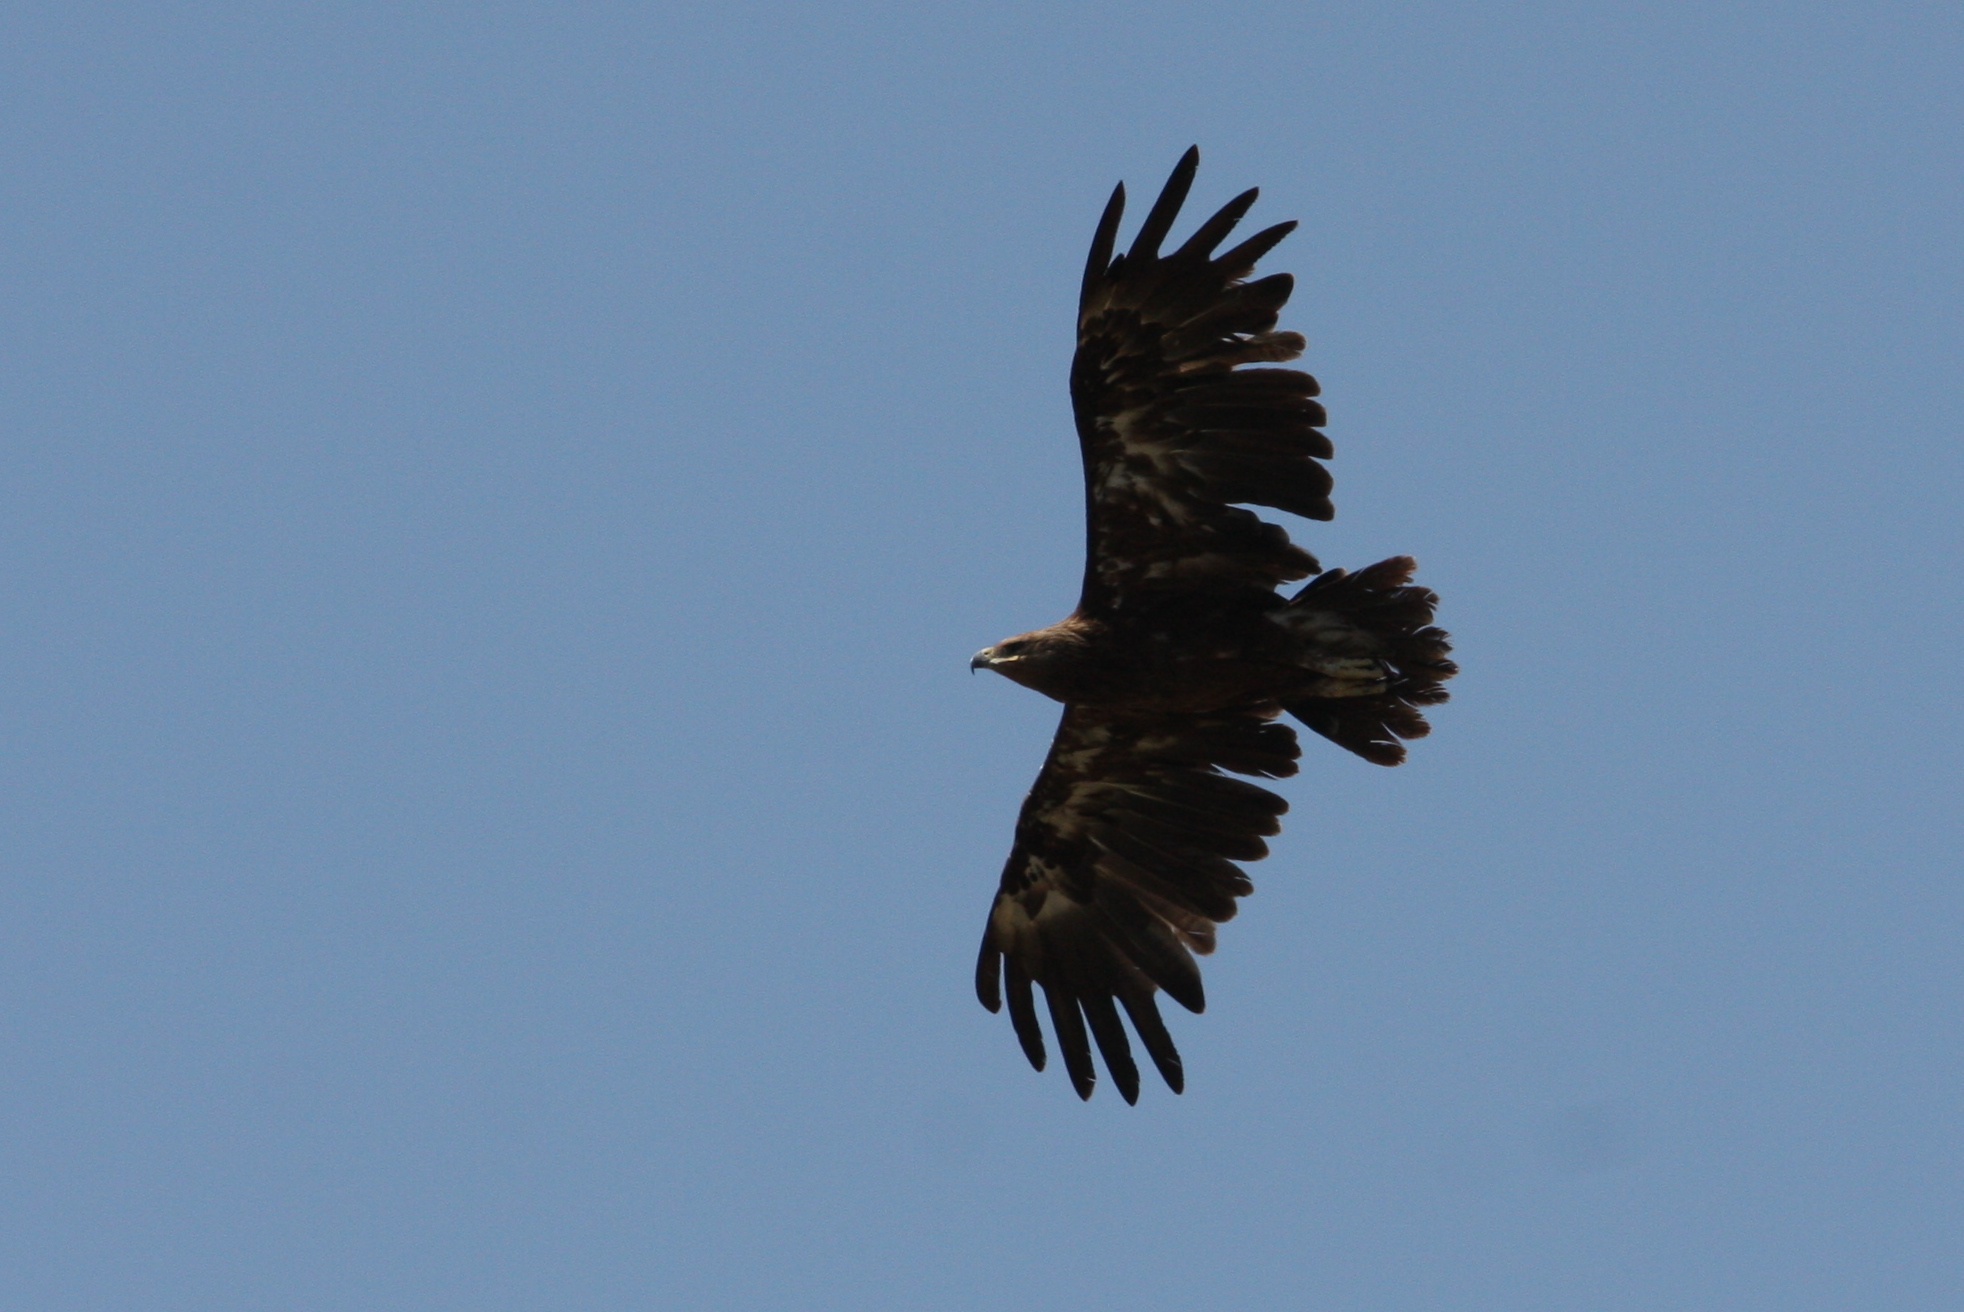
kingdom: Animalia
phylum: Chordata
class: Aves
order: Accipitriformes
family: Accipitridae
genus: Aquila
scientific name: Aquila nipalensis
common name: Steppe eagle
